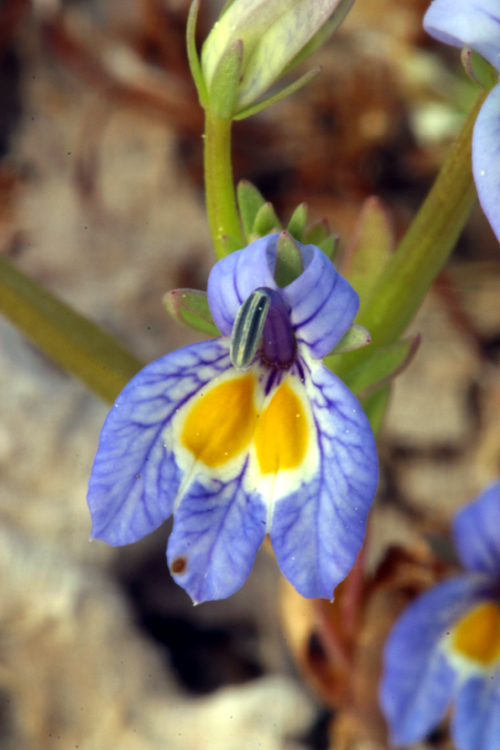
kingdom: Plantae
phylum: Tracheophyta
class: Magnoliopsida
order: Asterales
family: Campanulaceae
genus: Downingia
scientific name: Downingia bacigalupii
